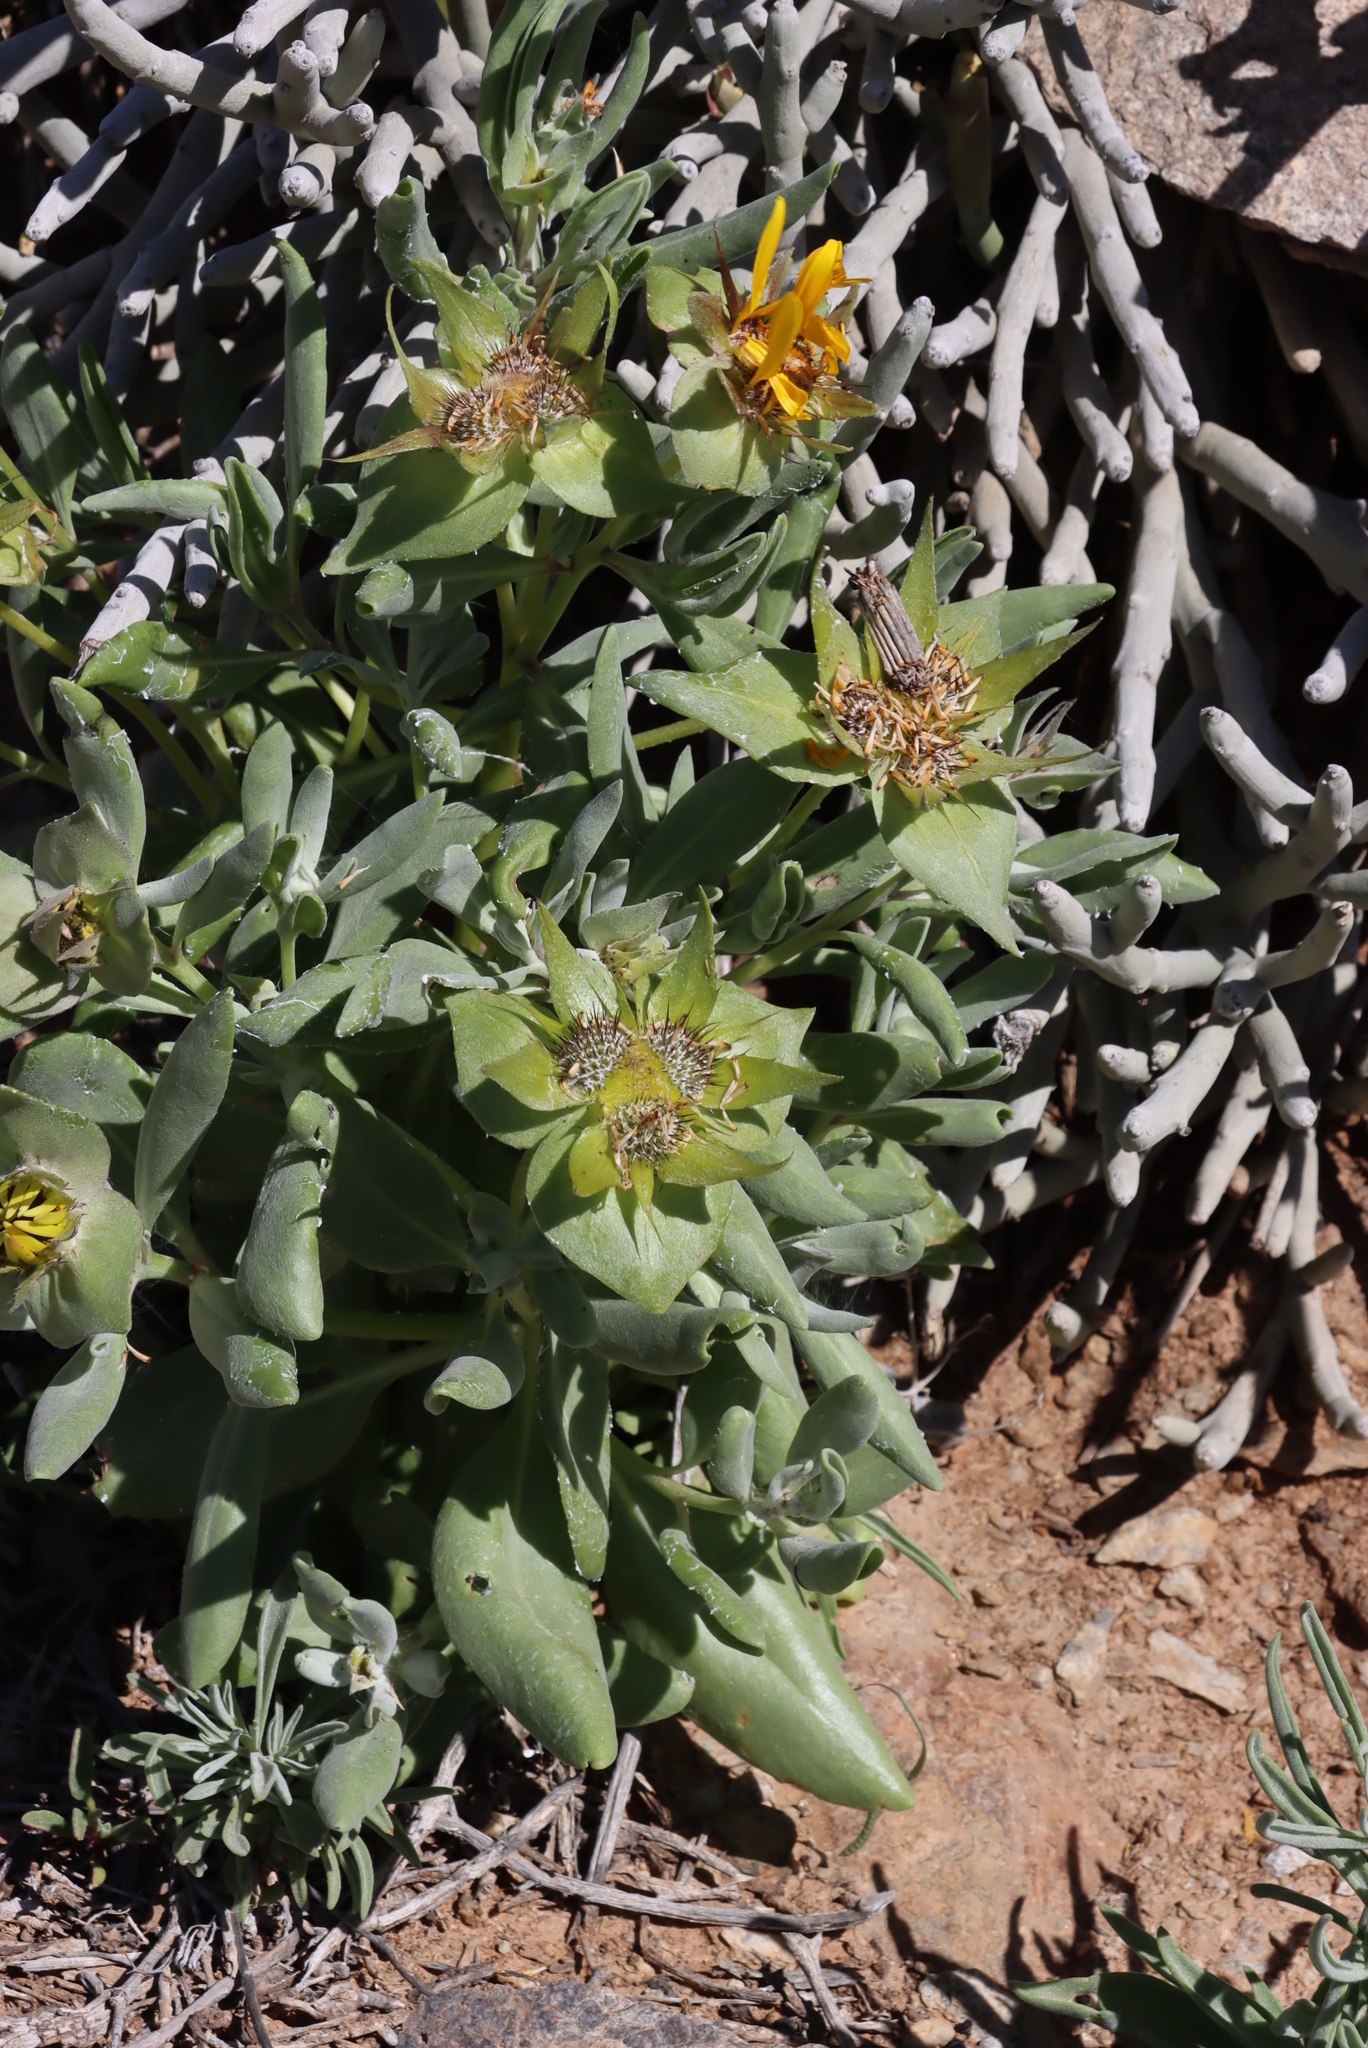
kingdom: Plantae
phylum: Tracheophyta
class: Magnoliopsida
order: Asterales
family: Asteraceae
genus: Didelta
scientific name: Didelta carnosa
